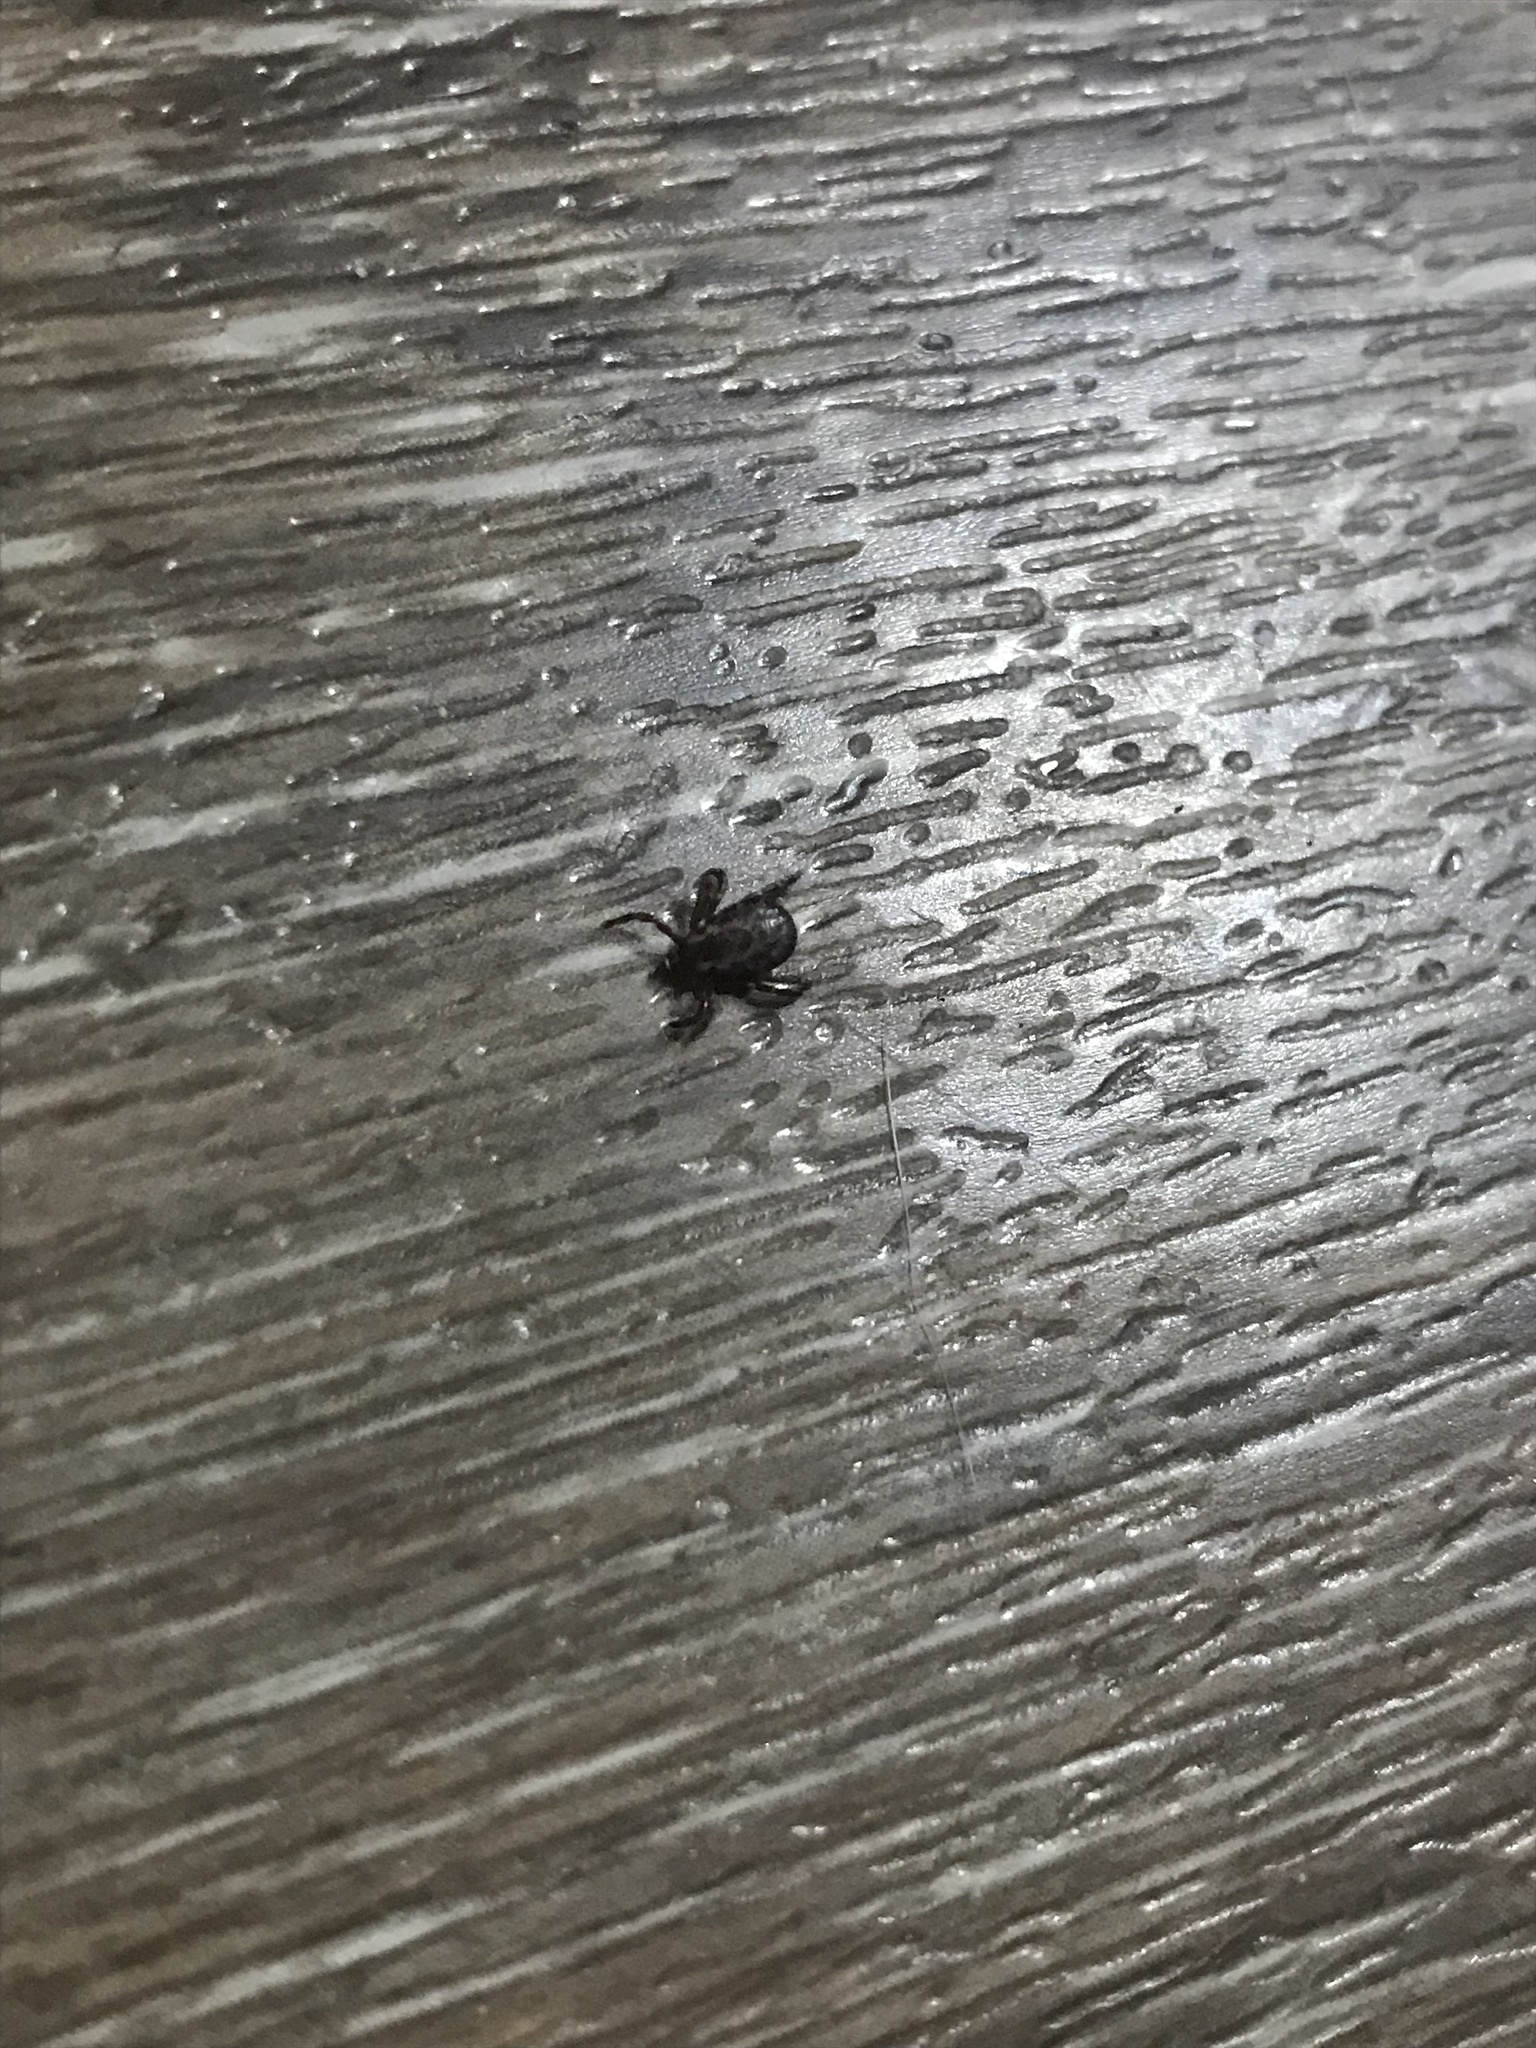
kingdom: Animalia
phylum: Arthropoda
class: Arachnida
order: Ixodida
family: Ixodidae
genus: Dermacentor
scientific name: Dermacentor variabilis
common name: American dog tick
